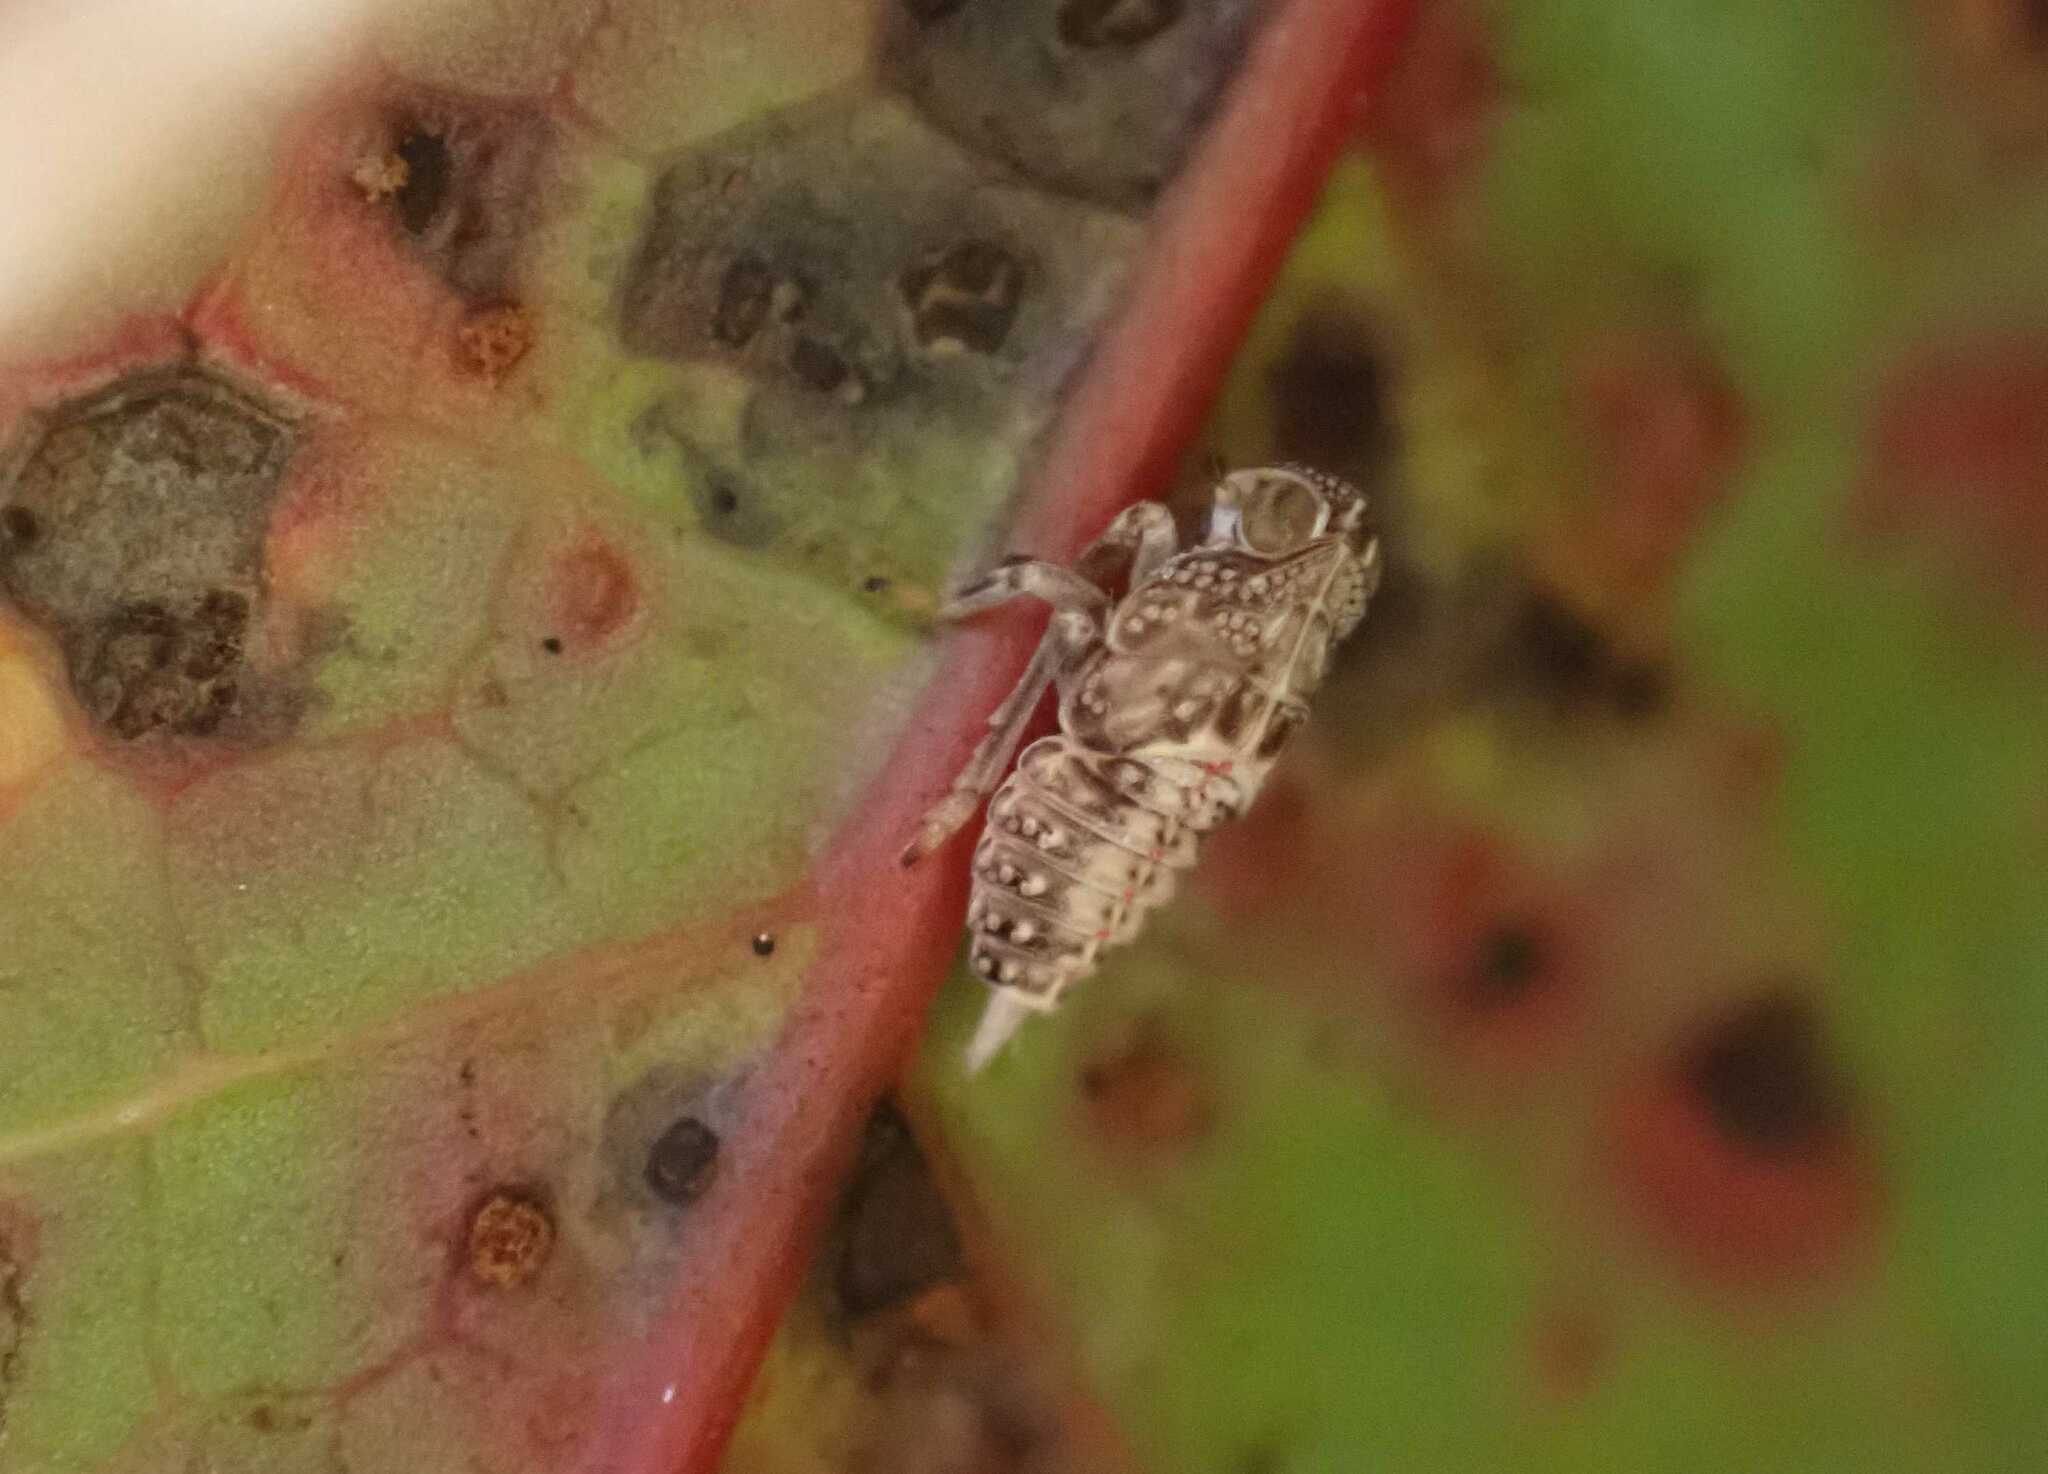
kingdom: Animalia
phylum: Arthropoda
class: Insecta
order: Hemiptera
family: Issidae
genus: Issus
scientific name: Issus coleoptratus
